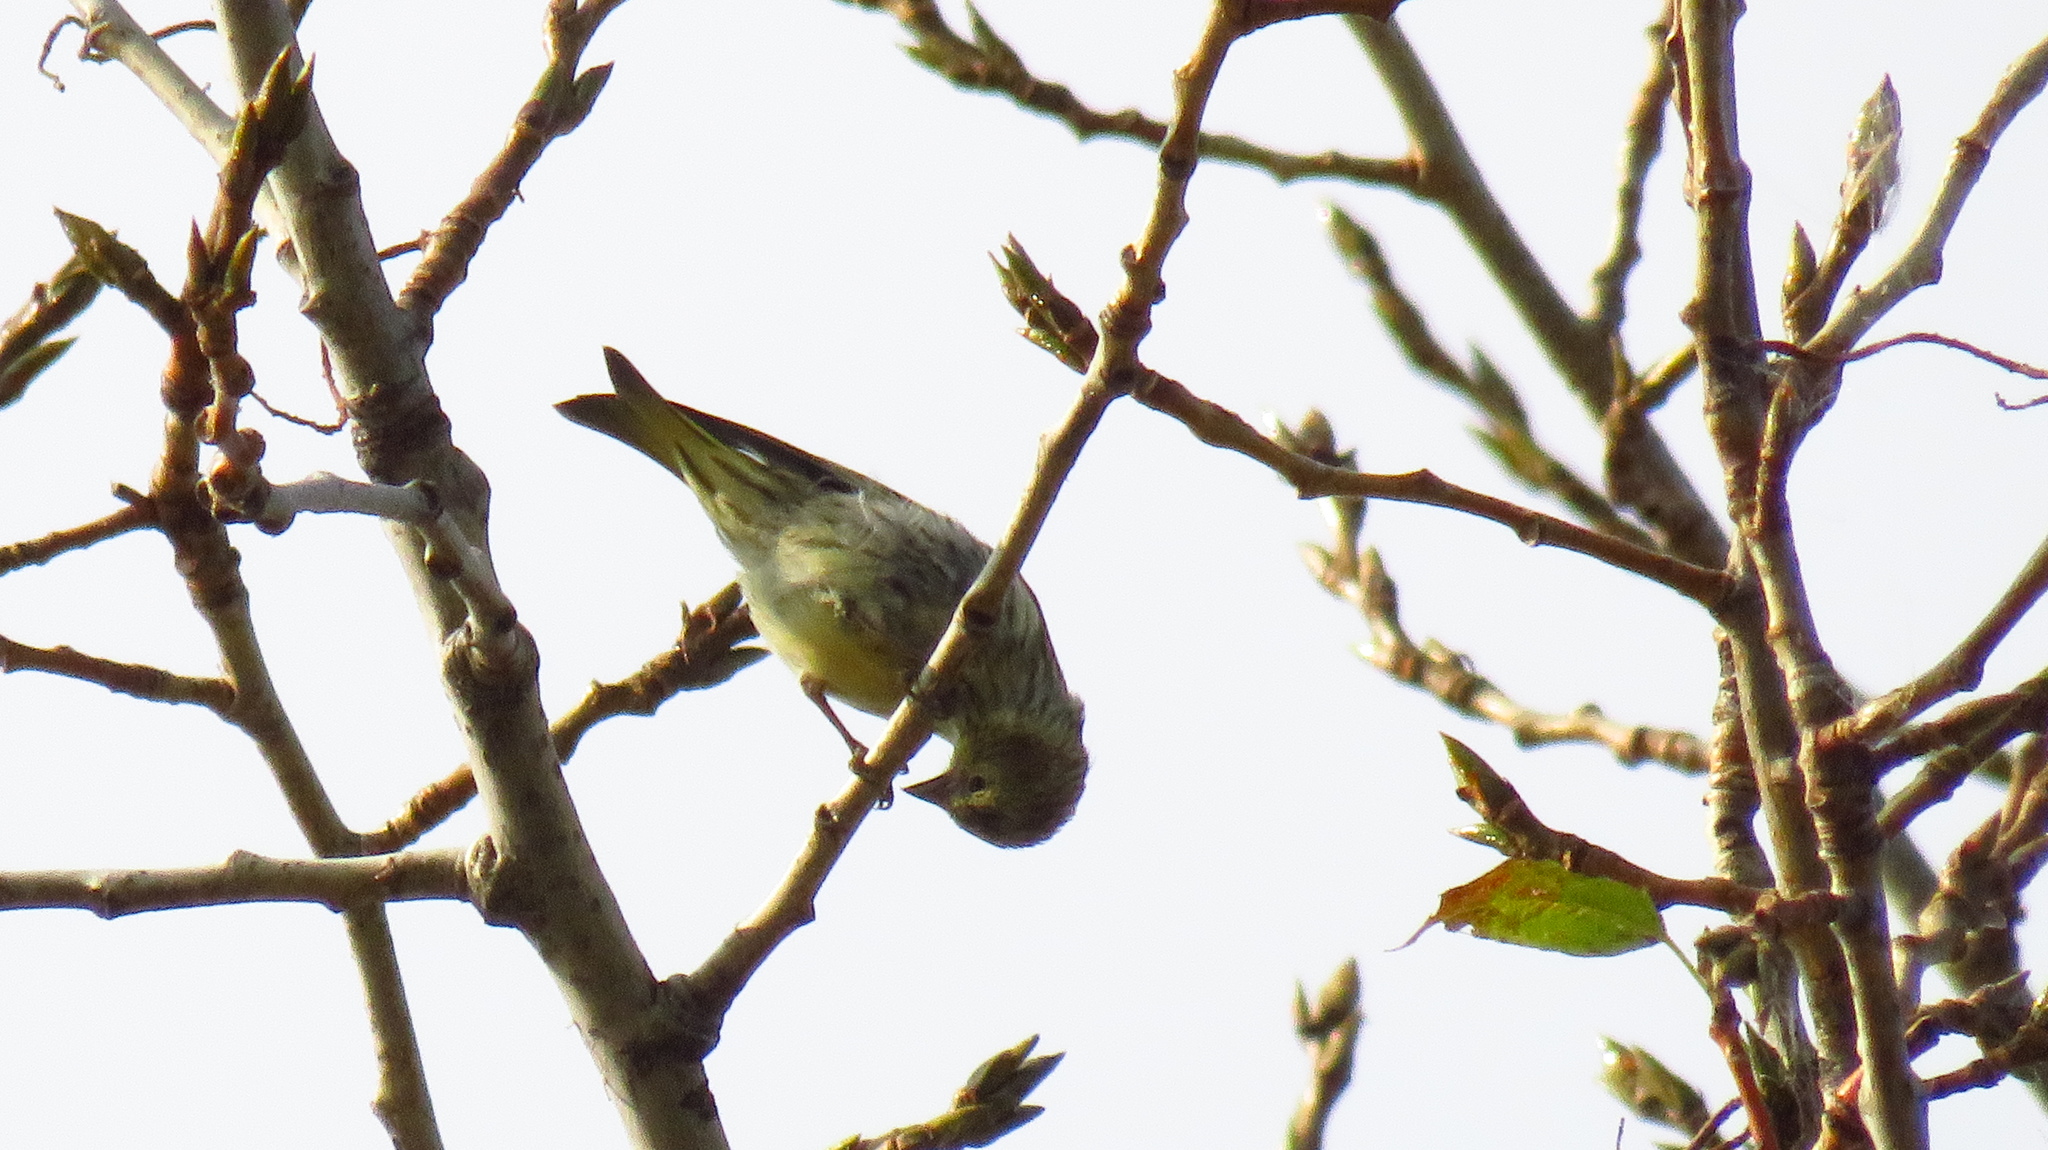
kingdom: Animalia
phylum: Chordata
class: Aves
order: Passeriformes
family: Fringillidae
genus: Spinus
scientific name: Spinus spinus
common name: Eurasian siskin
